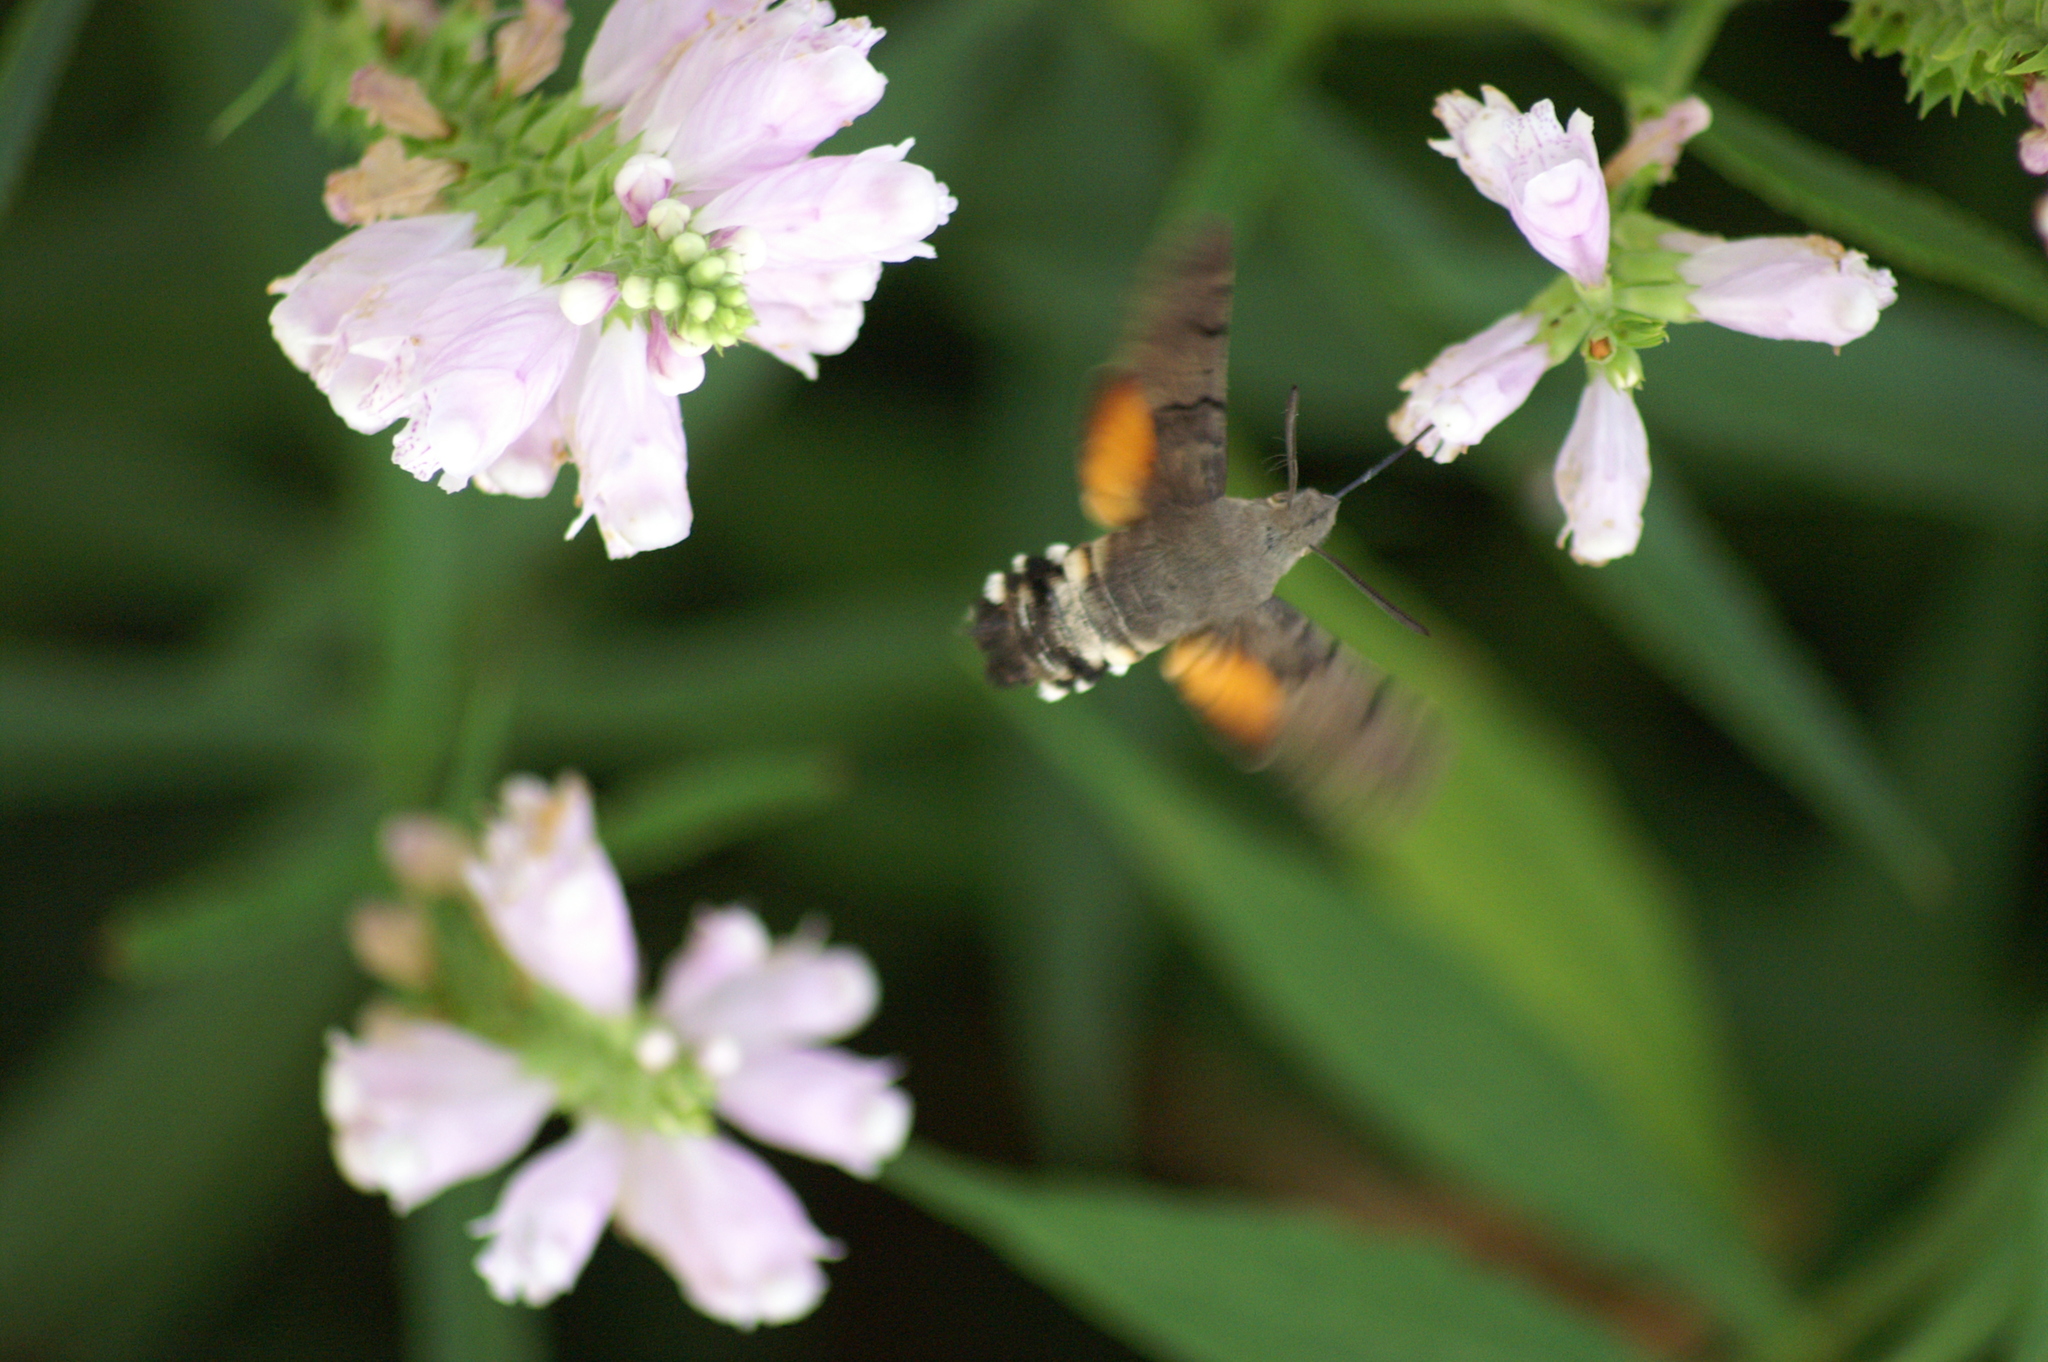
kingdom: Animalia
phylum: Arthropoda
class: Insecta
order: Lepidoptera
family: Sphingidae
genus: Macroglossum
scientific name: Macroglossum stellatarum
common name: Humming-bird hawk-moth
